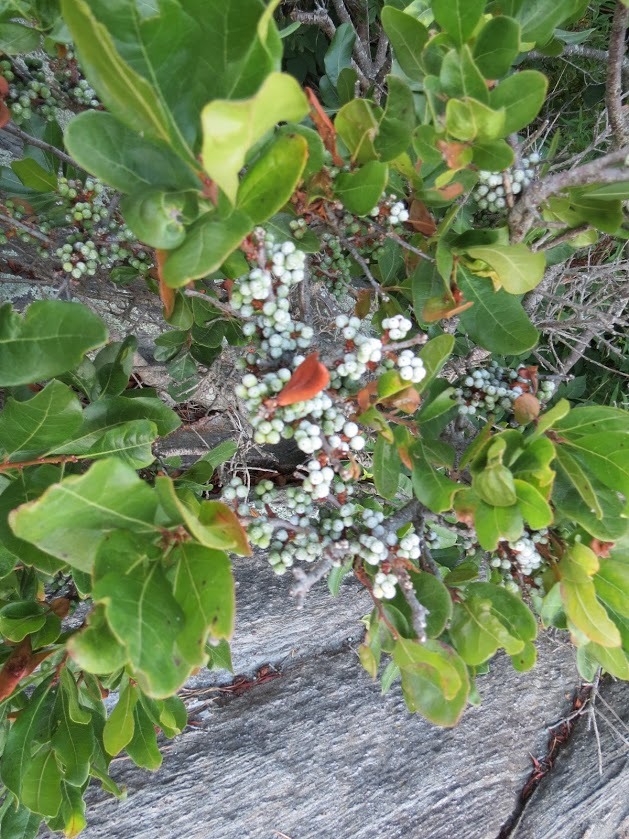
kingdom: Plantae
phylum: Tracheophyta
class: Magnoliopsida
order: Fagales
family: Myricaceae
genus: Morella
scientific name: Morella pensylvanica
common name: Northern bayberry
